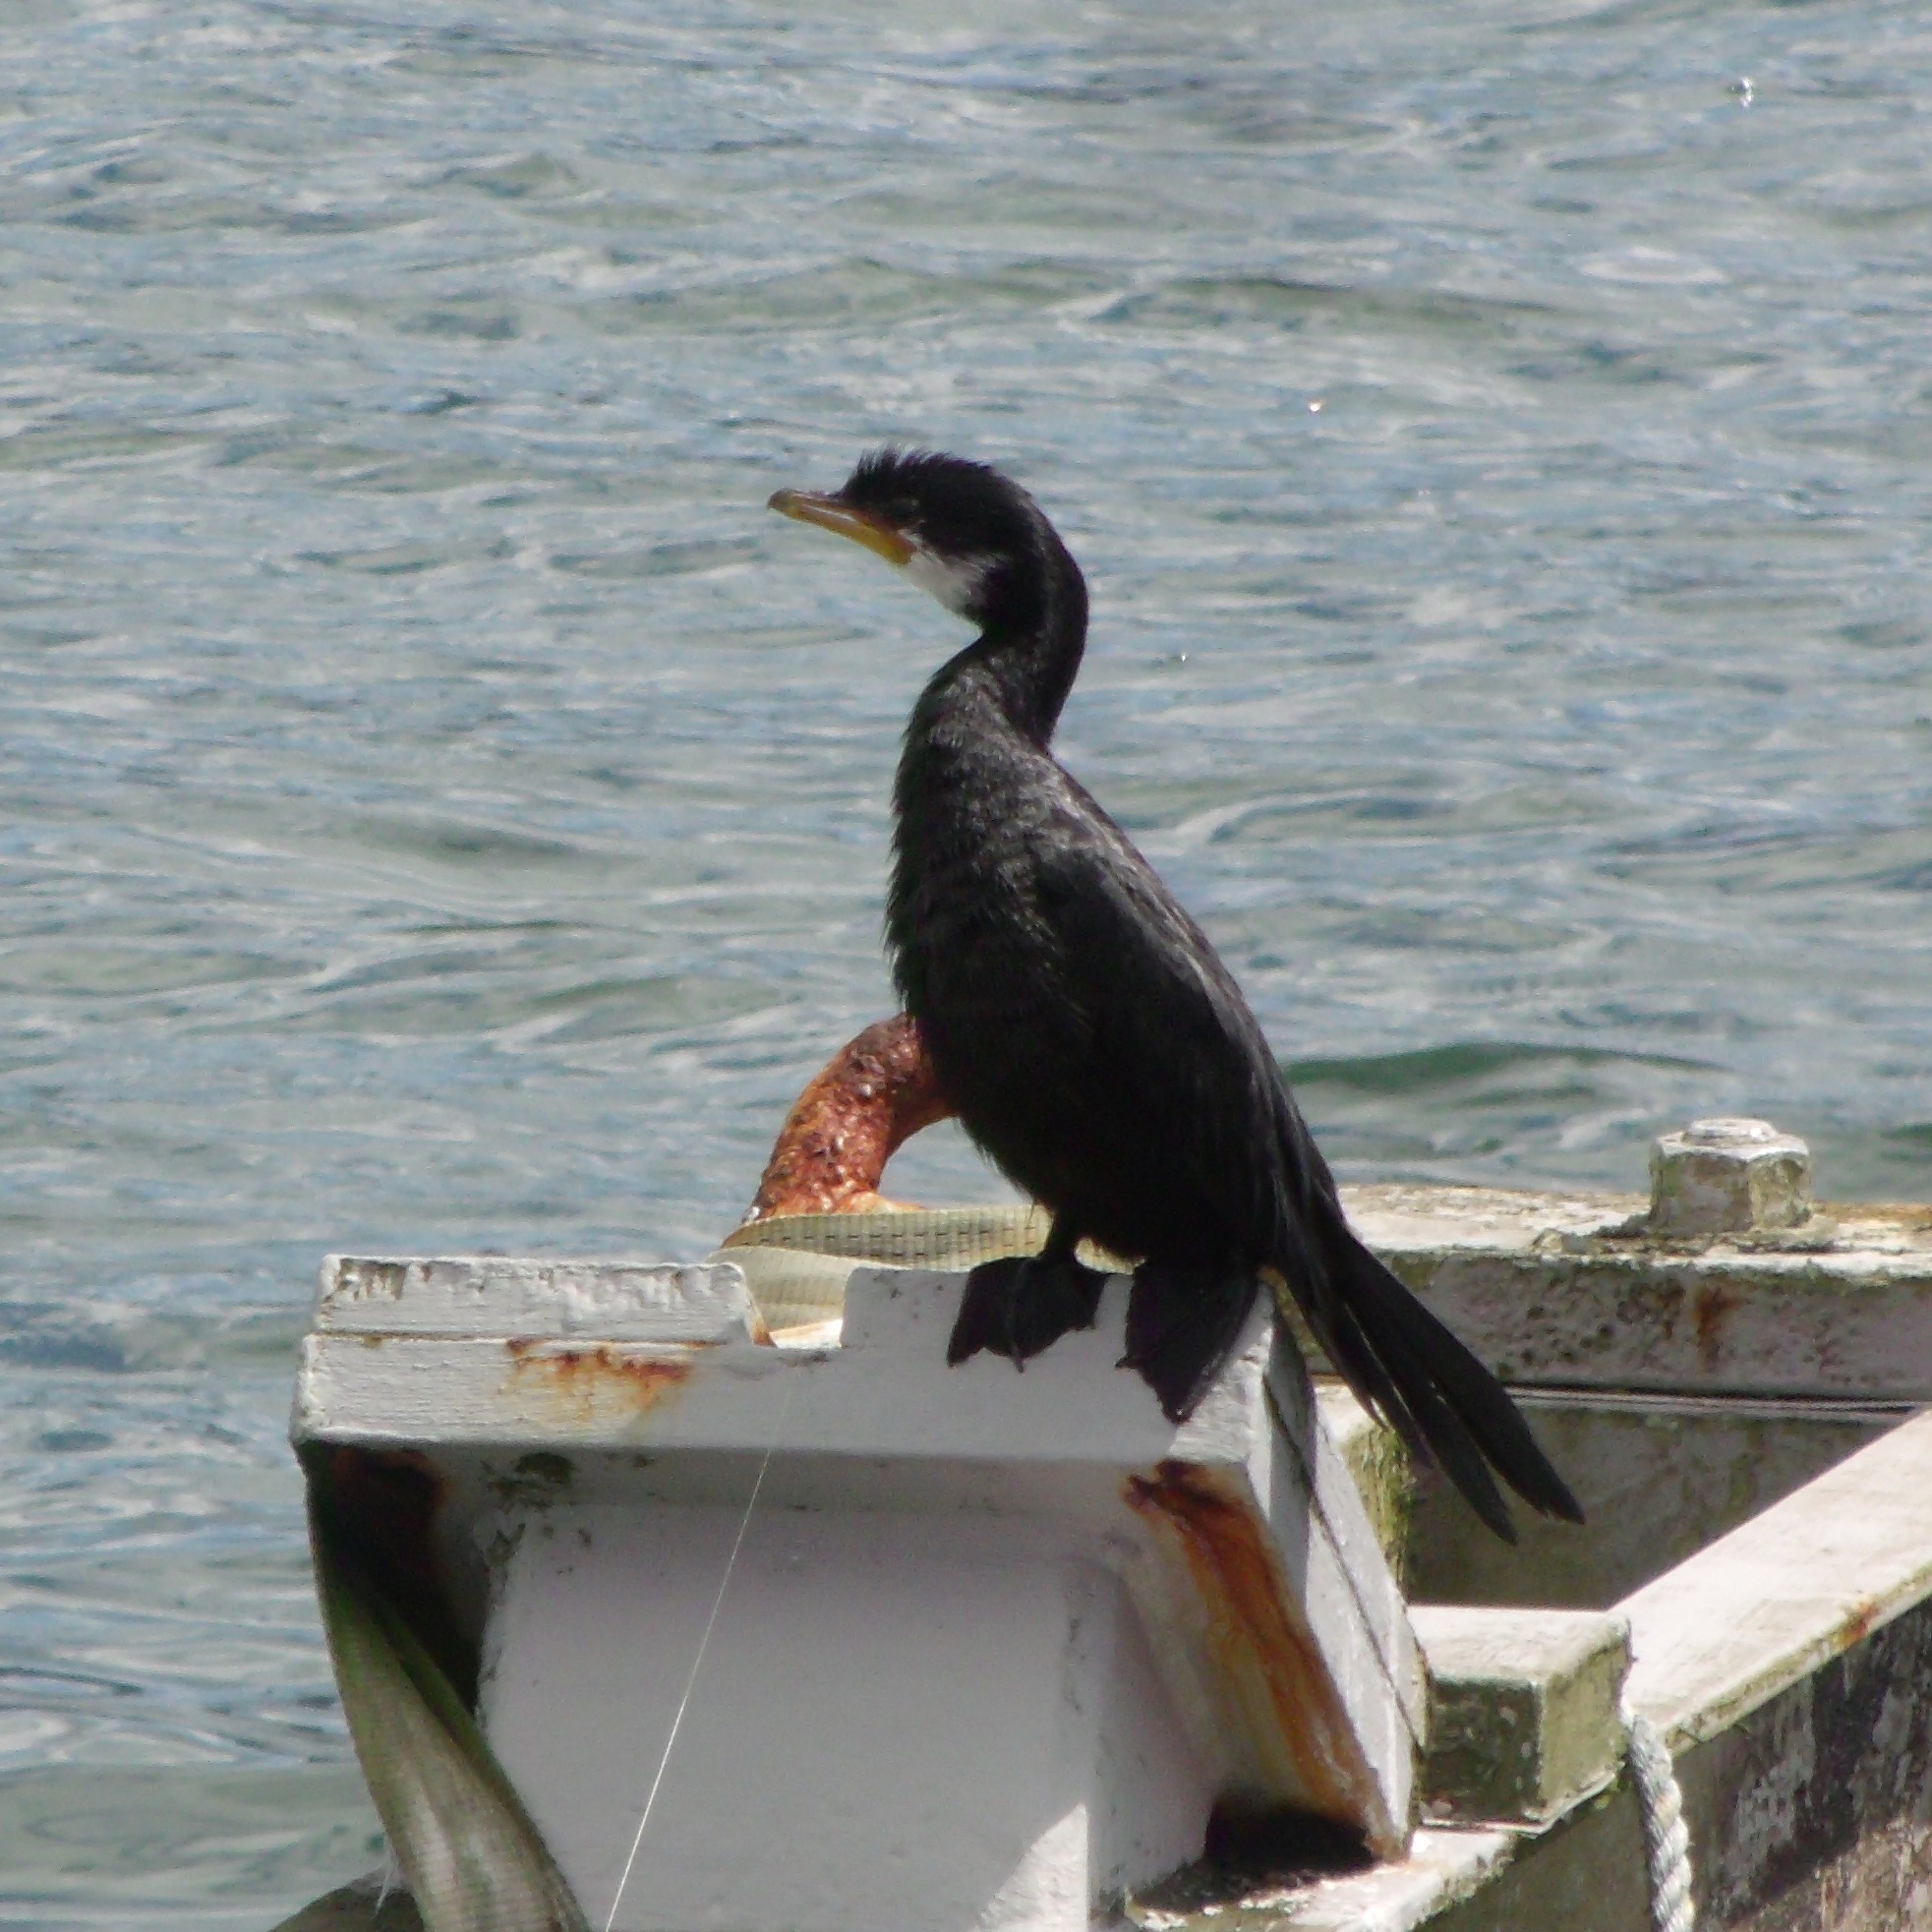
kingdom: Animalia
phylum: Chordata
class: Aves
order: Suliformes
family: Phalacrocoracidae
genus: Microcarbo
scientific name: Microcarbo melanoleucos
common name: Little pied cormorant
